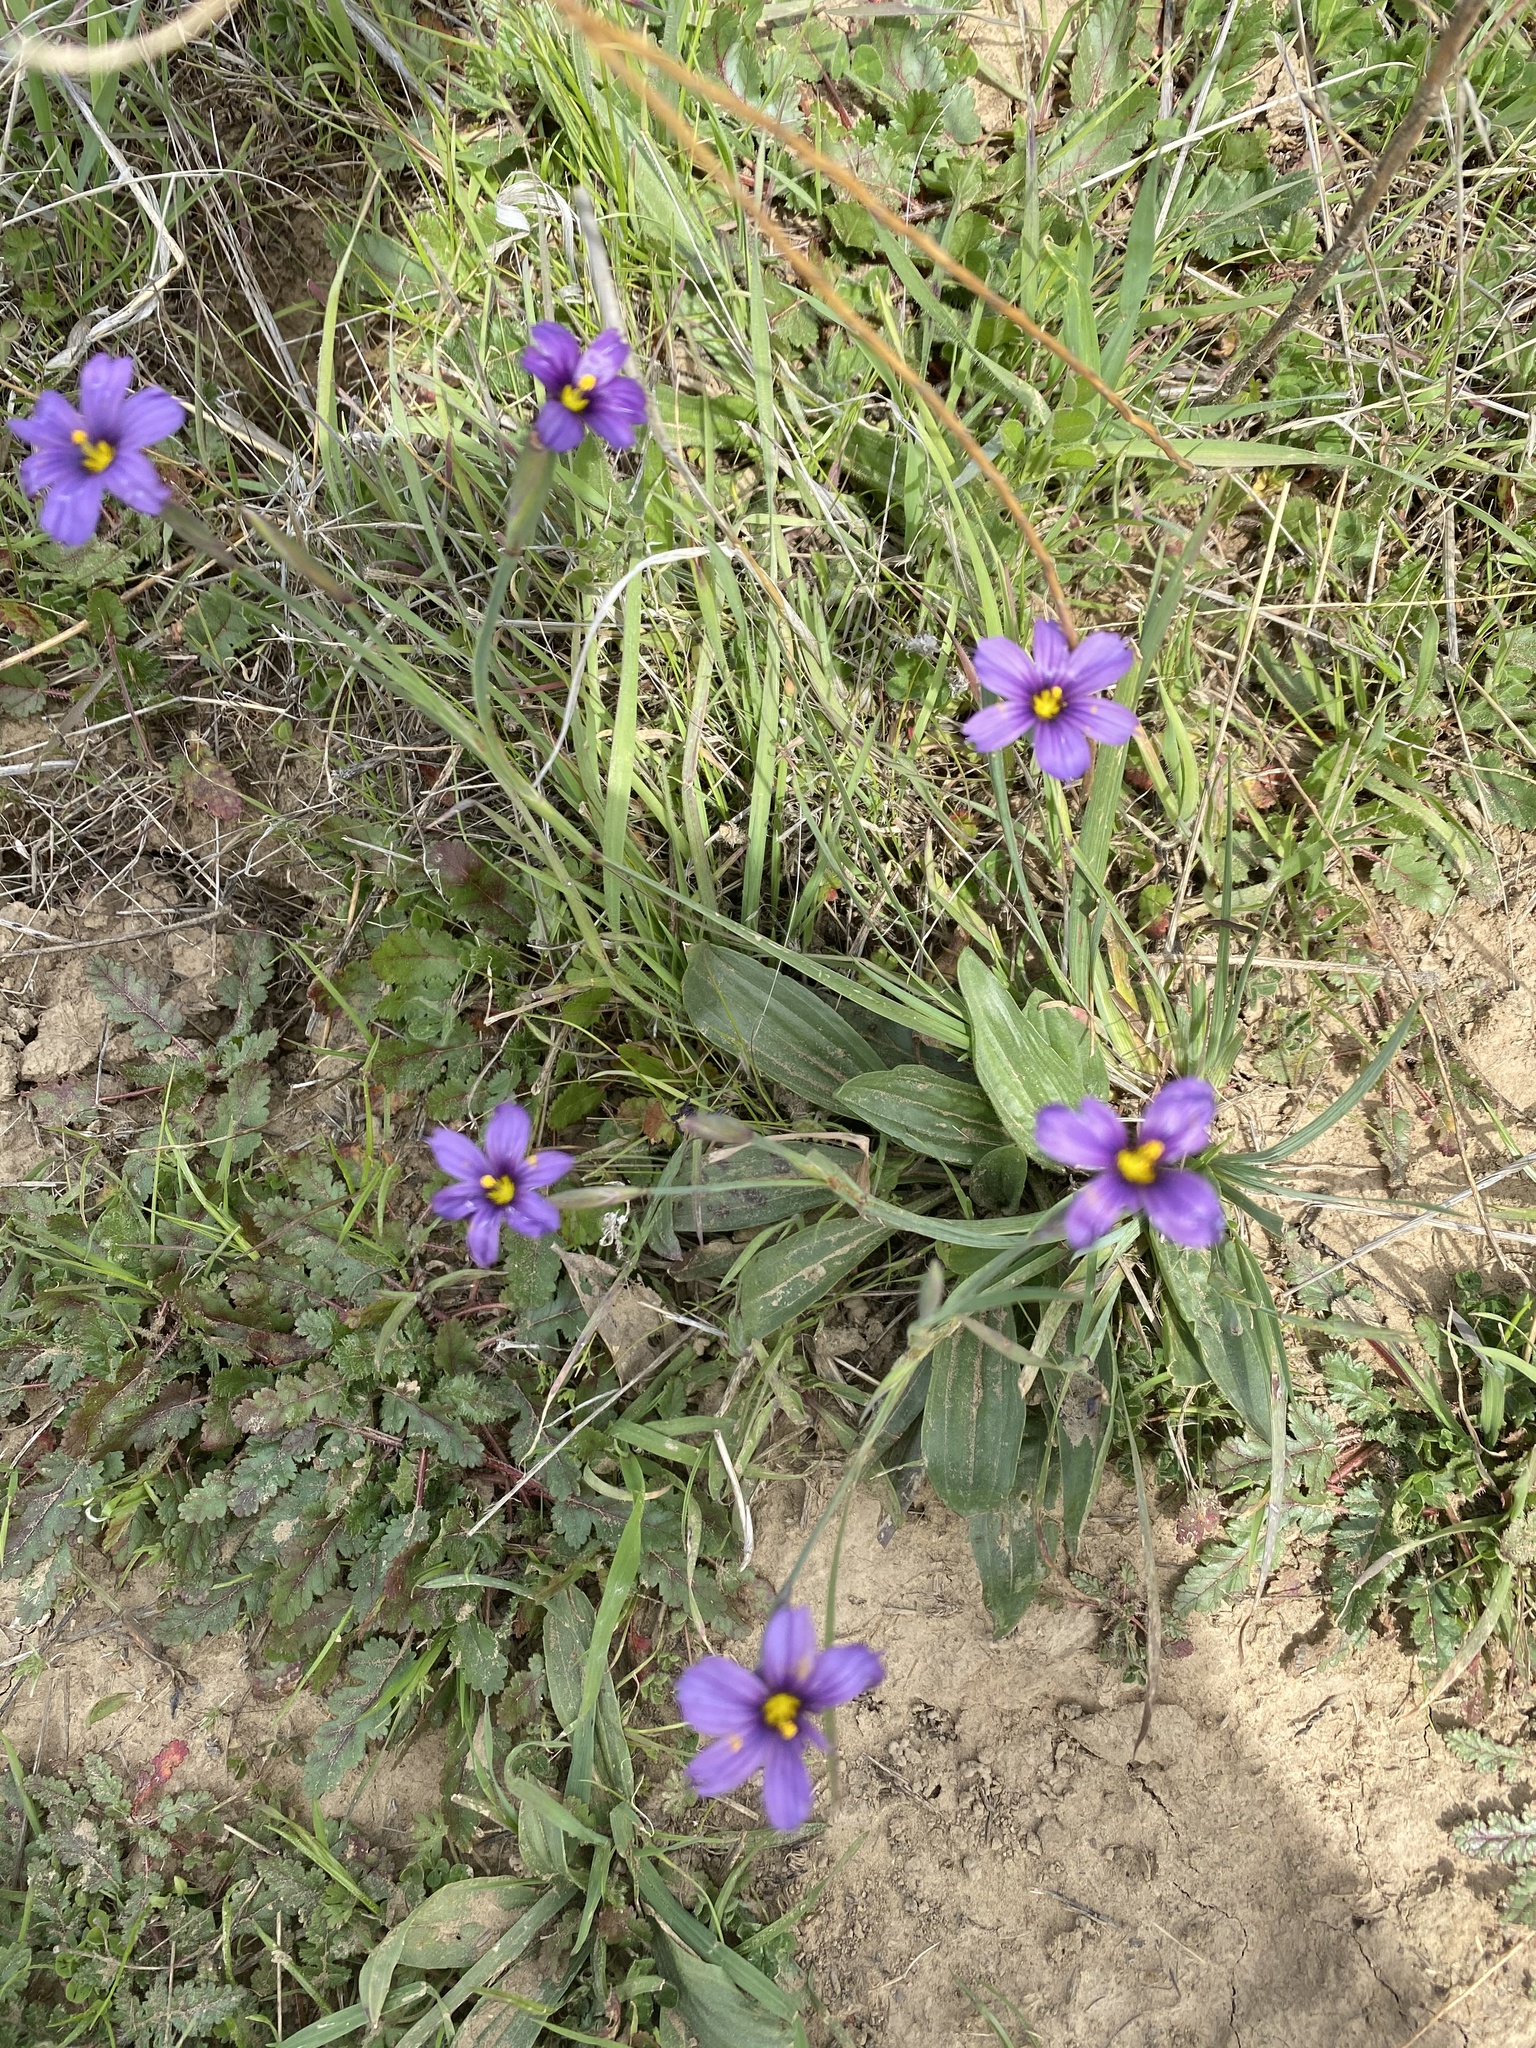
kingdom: Plantae
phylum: Tracheophyta
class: Liliopsida
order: Asparagales
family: Iridaceae
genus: Sisyrinchium
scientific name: Sisyrinchium bellum
